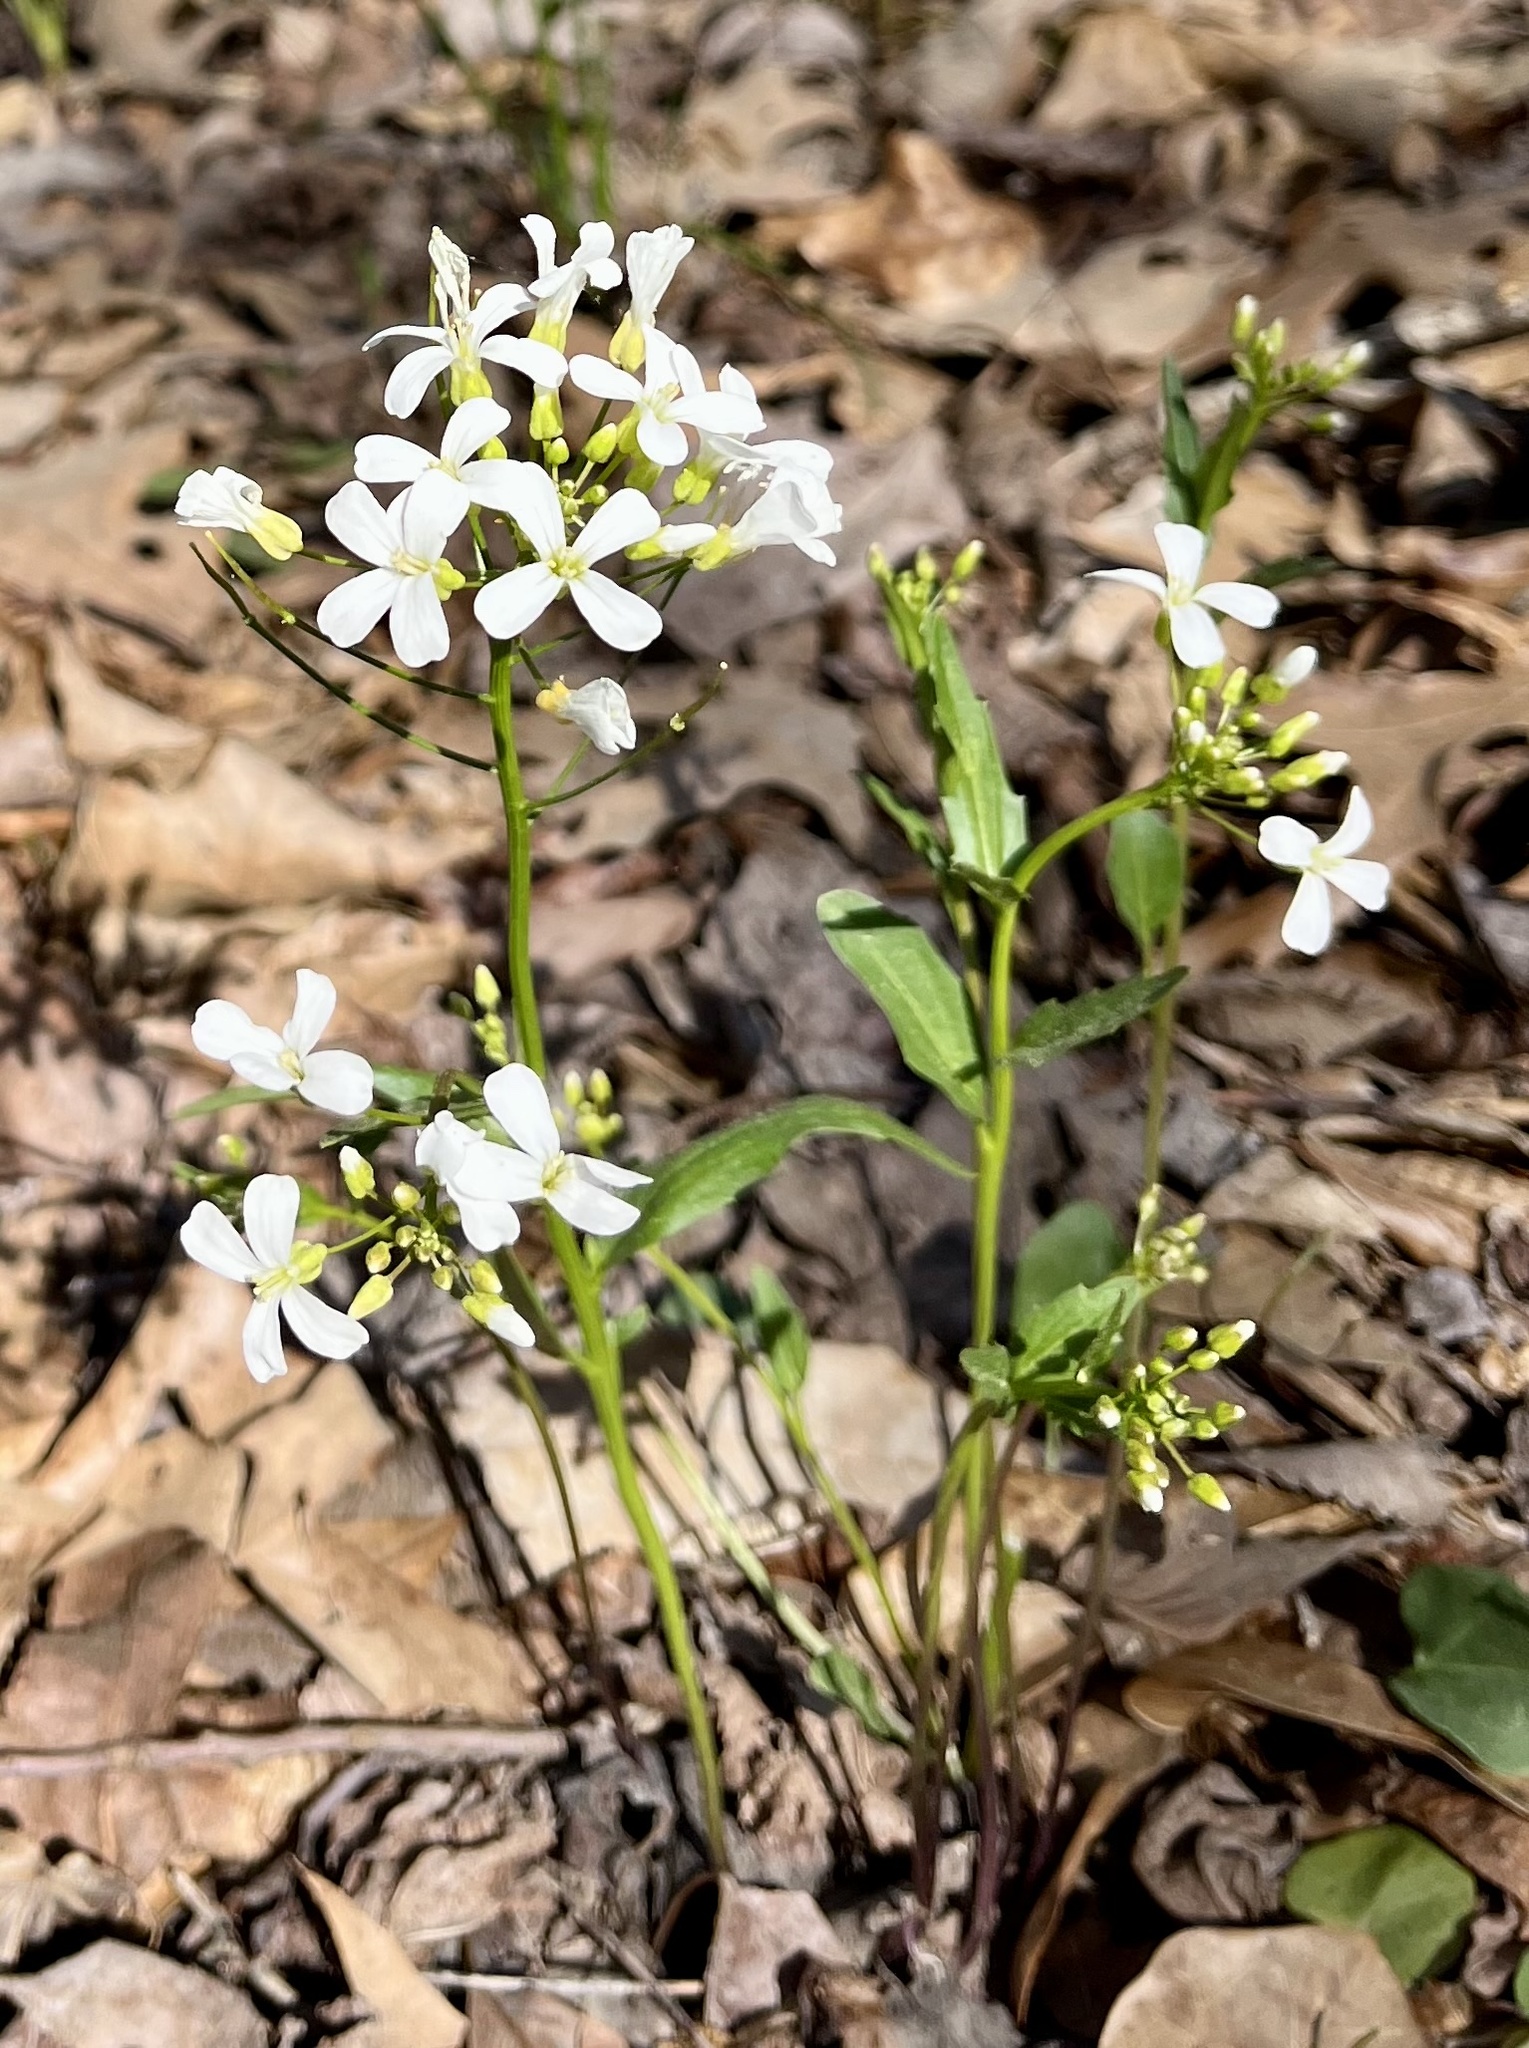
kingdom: Plantae
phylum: Tracheophyta
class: Magnoliopsida
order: Brassicales
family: Brassicaceae
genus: Cardamine
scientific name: Cardamine bulbosa
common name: Spring cress
